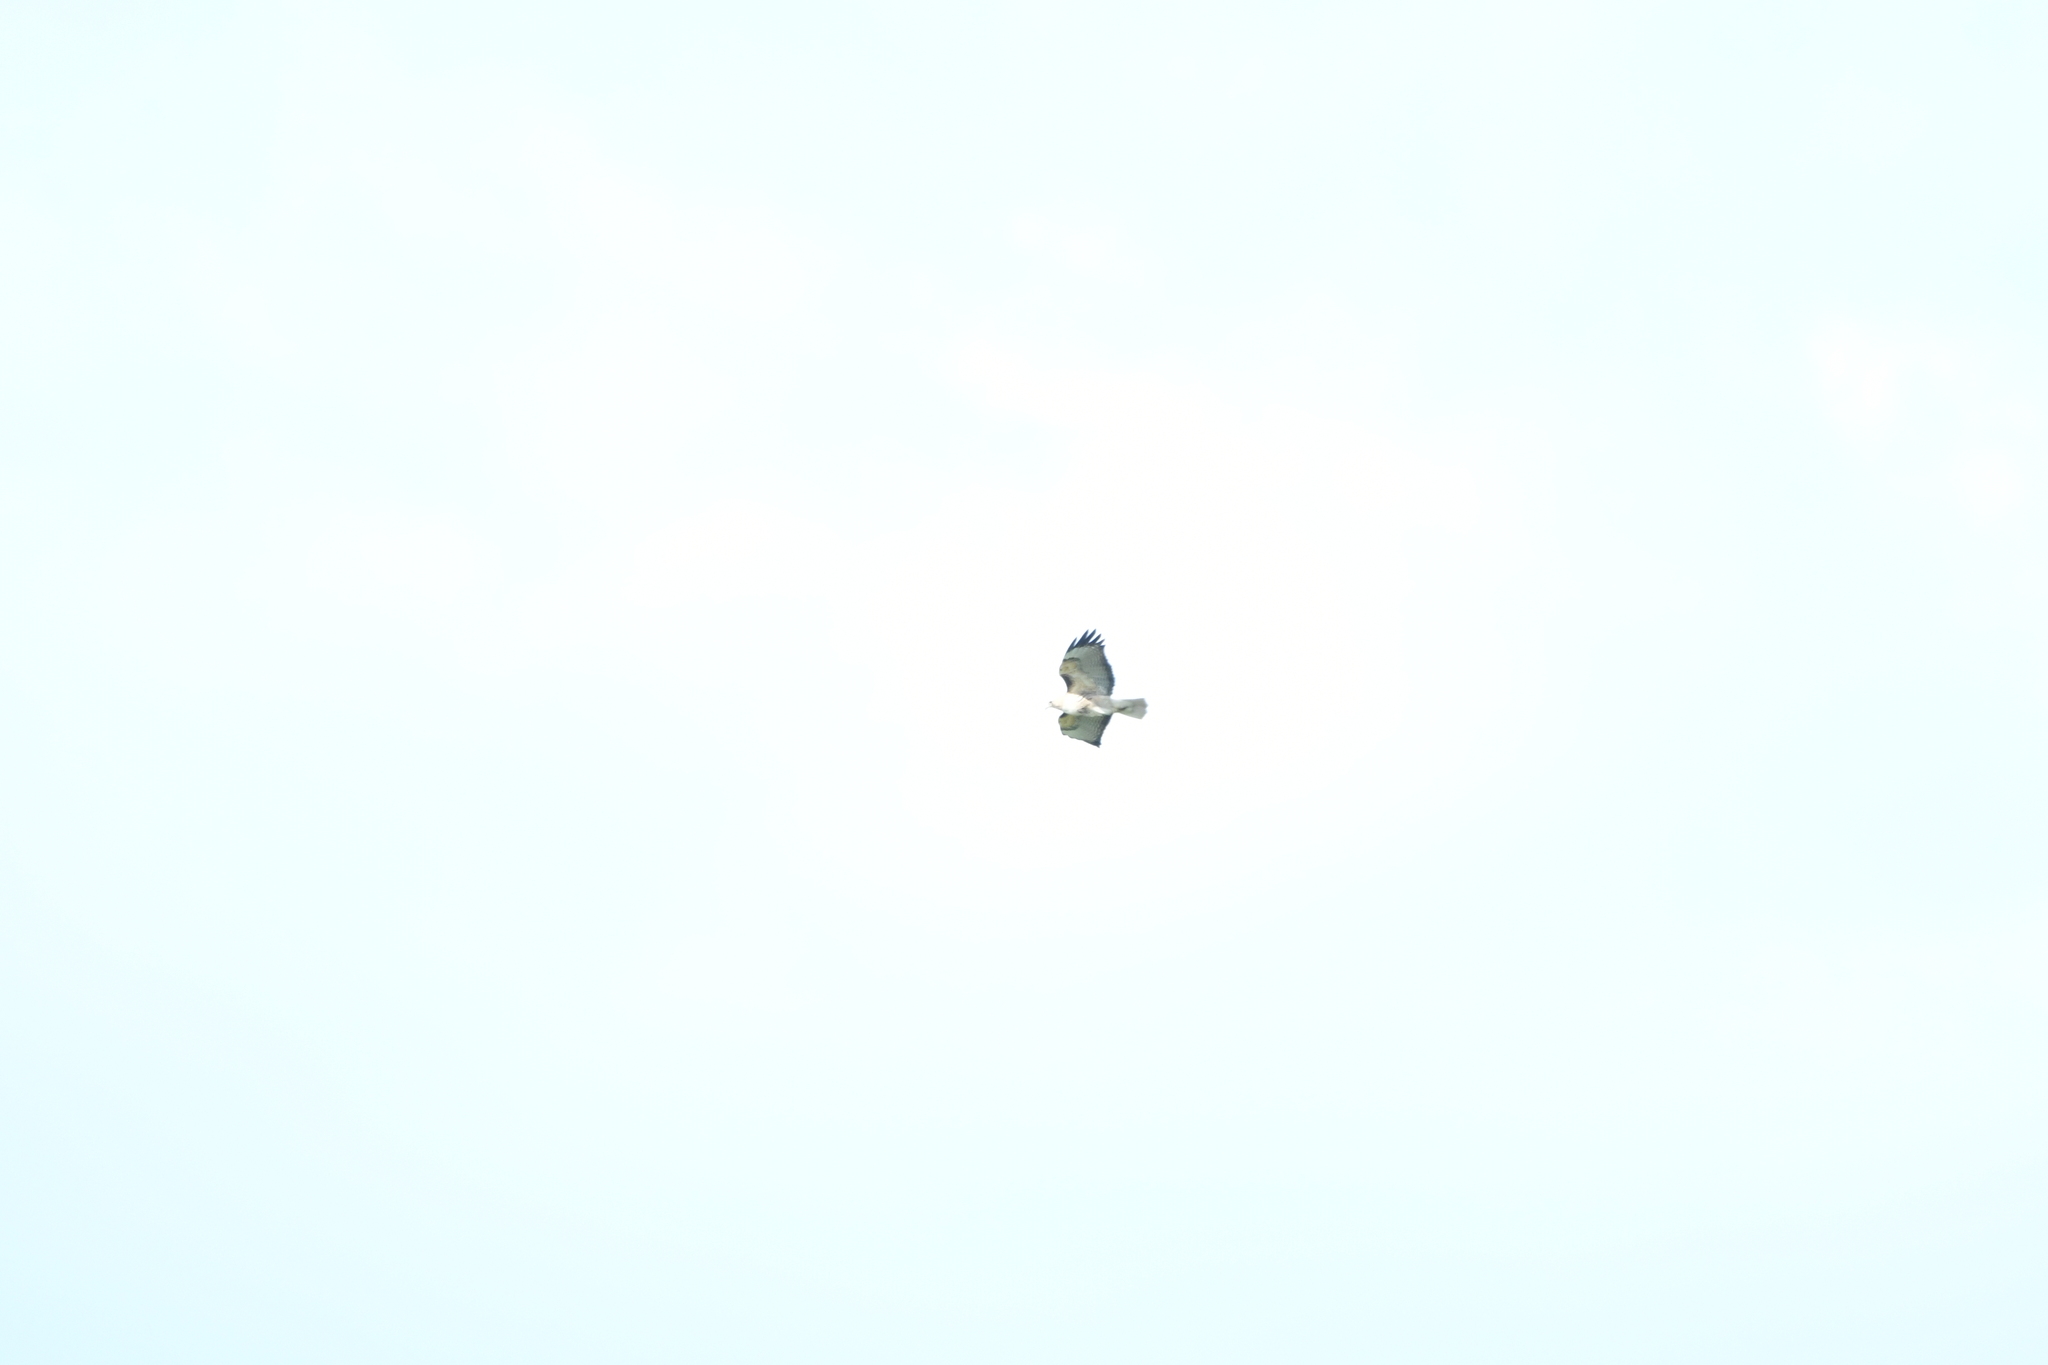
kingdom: Animalia
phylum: Chordata
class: Aves
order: Accipitriformes
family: Accipitridae
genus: Buteo
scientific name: Buteo jamaicensis
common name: Red-tailed hawk
